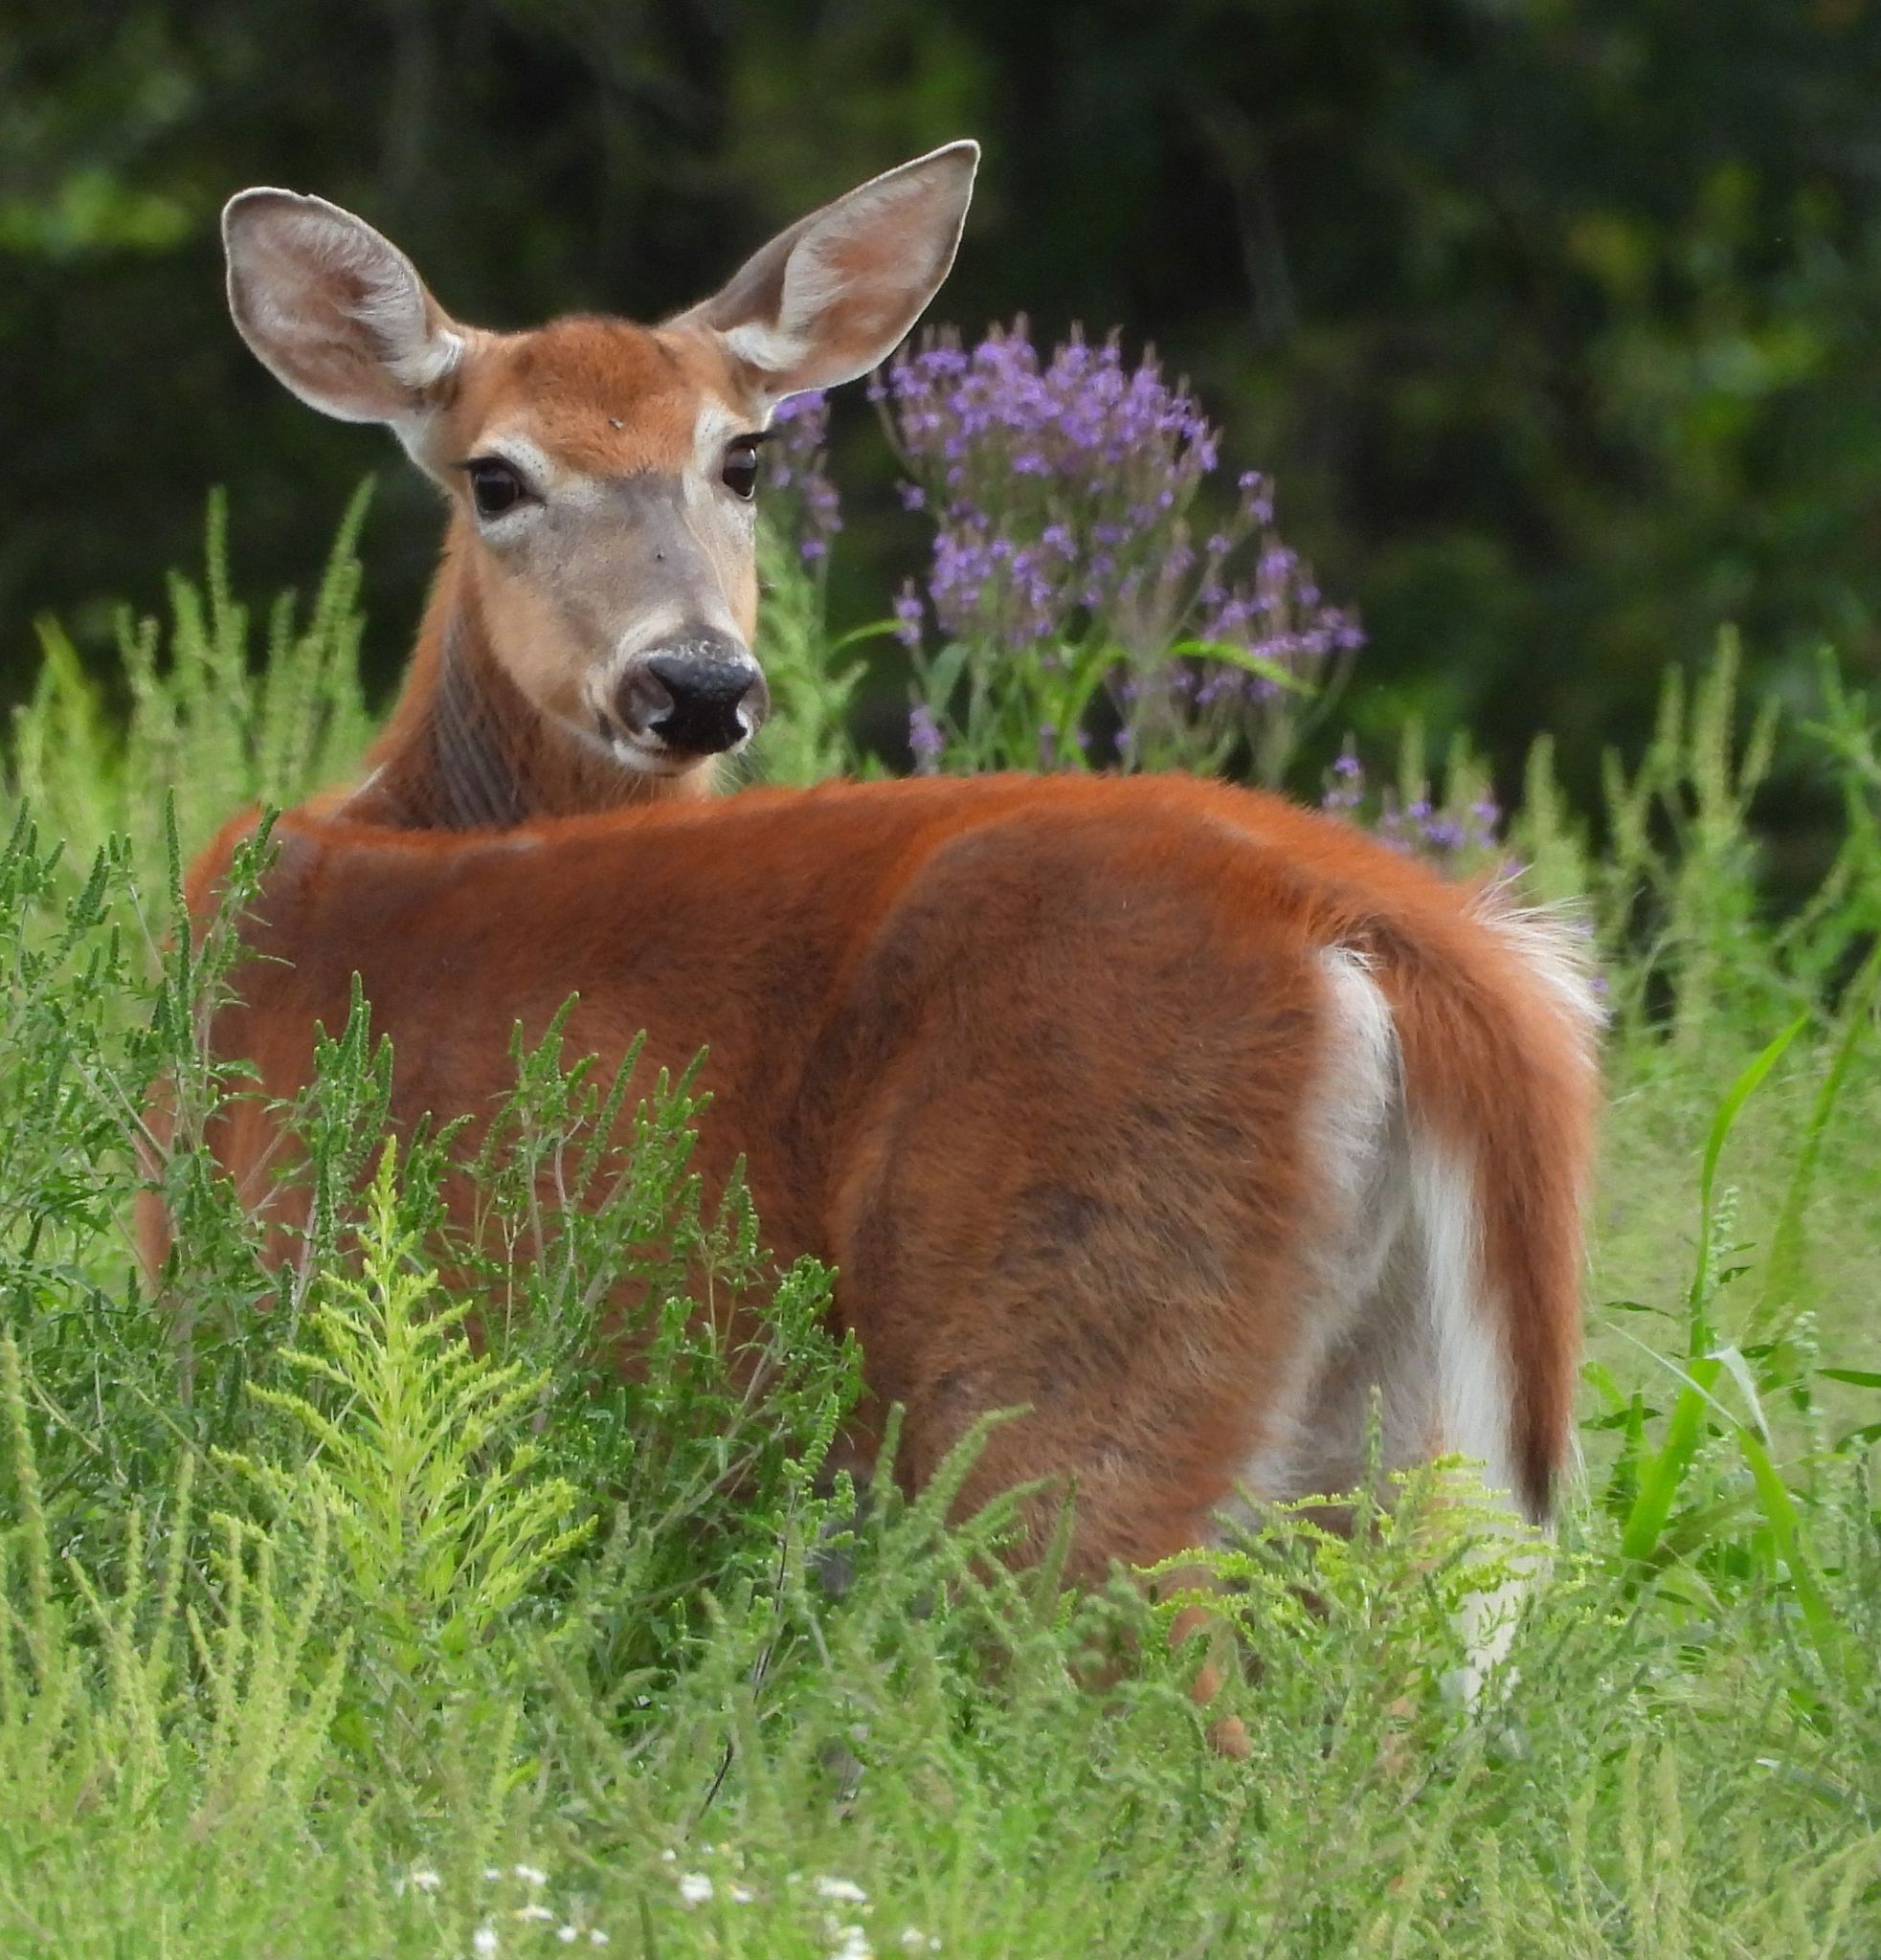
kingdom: Animalia
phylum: Chordata
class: Mammalia
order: Artiodactyla
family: Cervidae
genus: Odocoileus
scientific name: Odocoileus virginianus
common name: White-tailed deer
